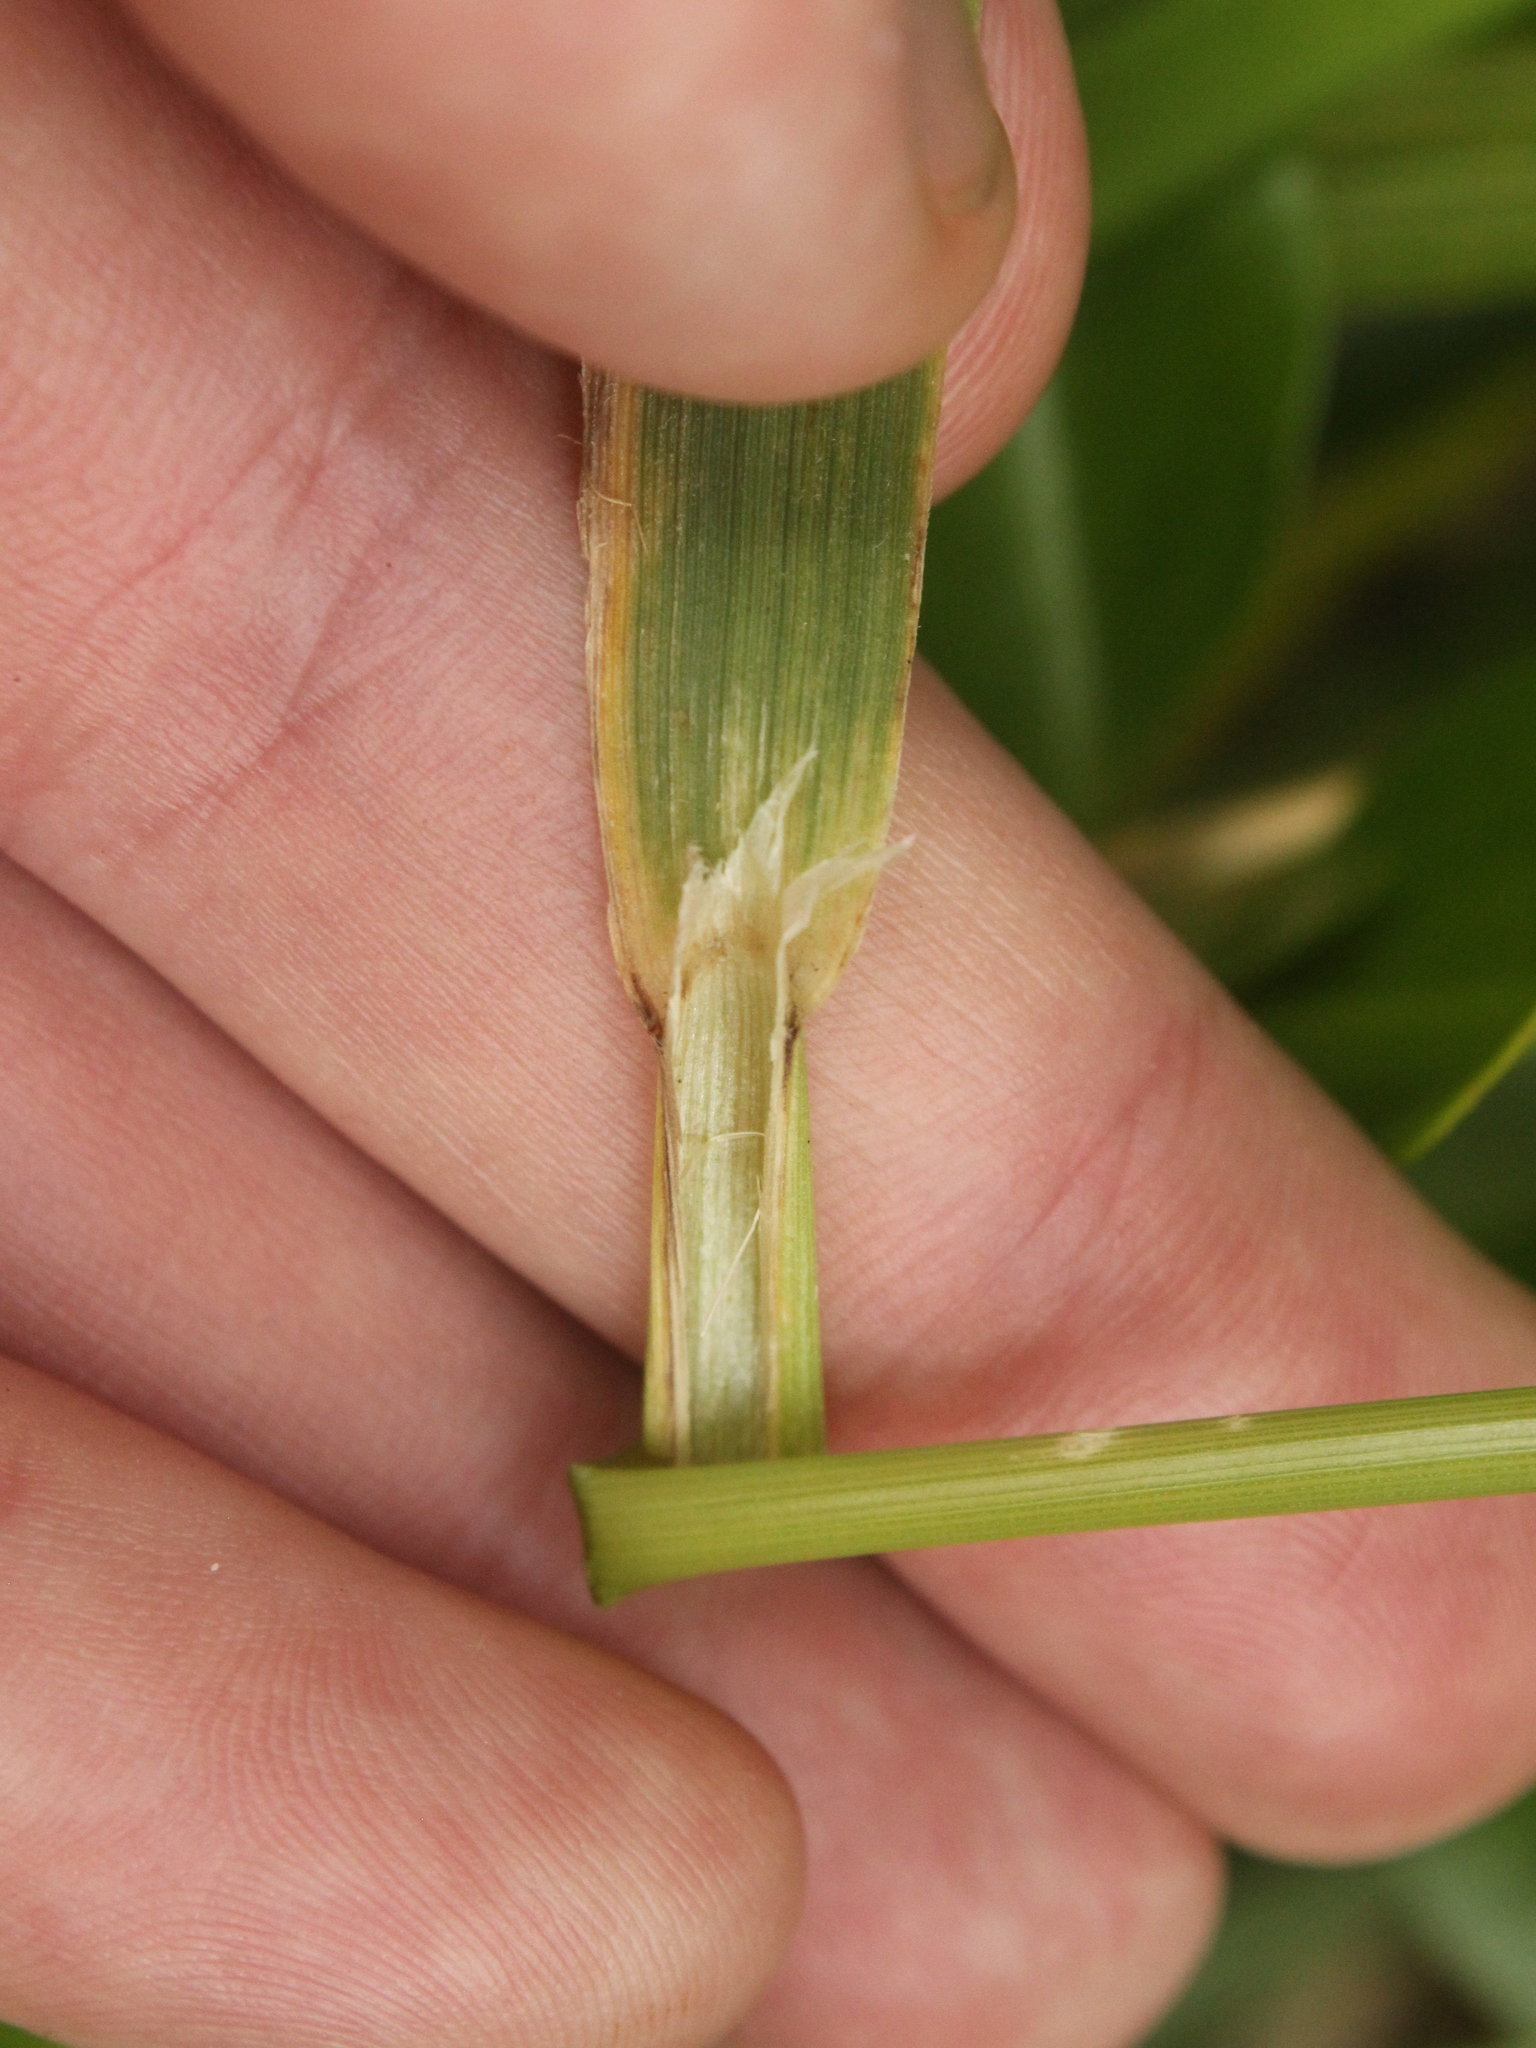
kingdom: Plantae
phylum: Tracheophyta
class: Liliopsida
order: Poales
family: Poaceae
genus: Anthoxanthum
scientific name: Anthoxanthum redolens
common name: Sweet holy grass
